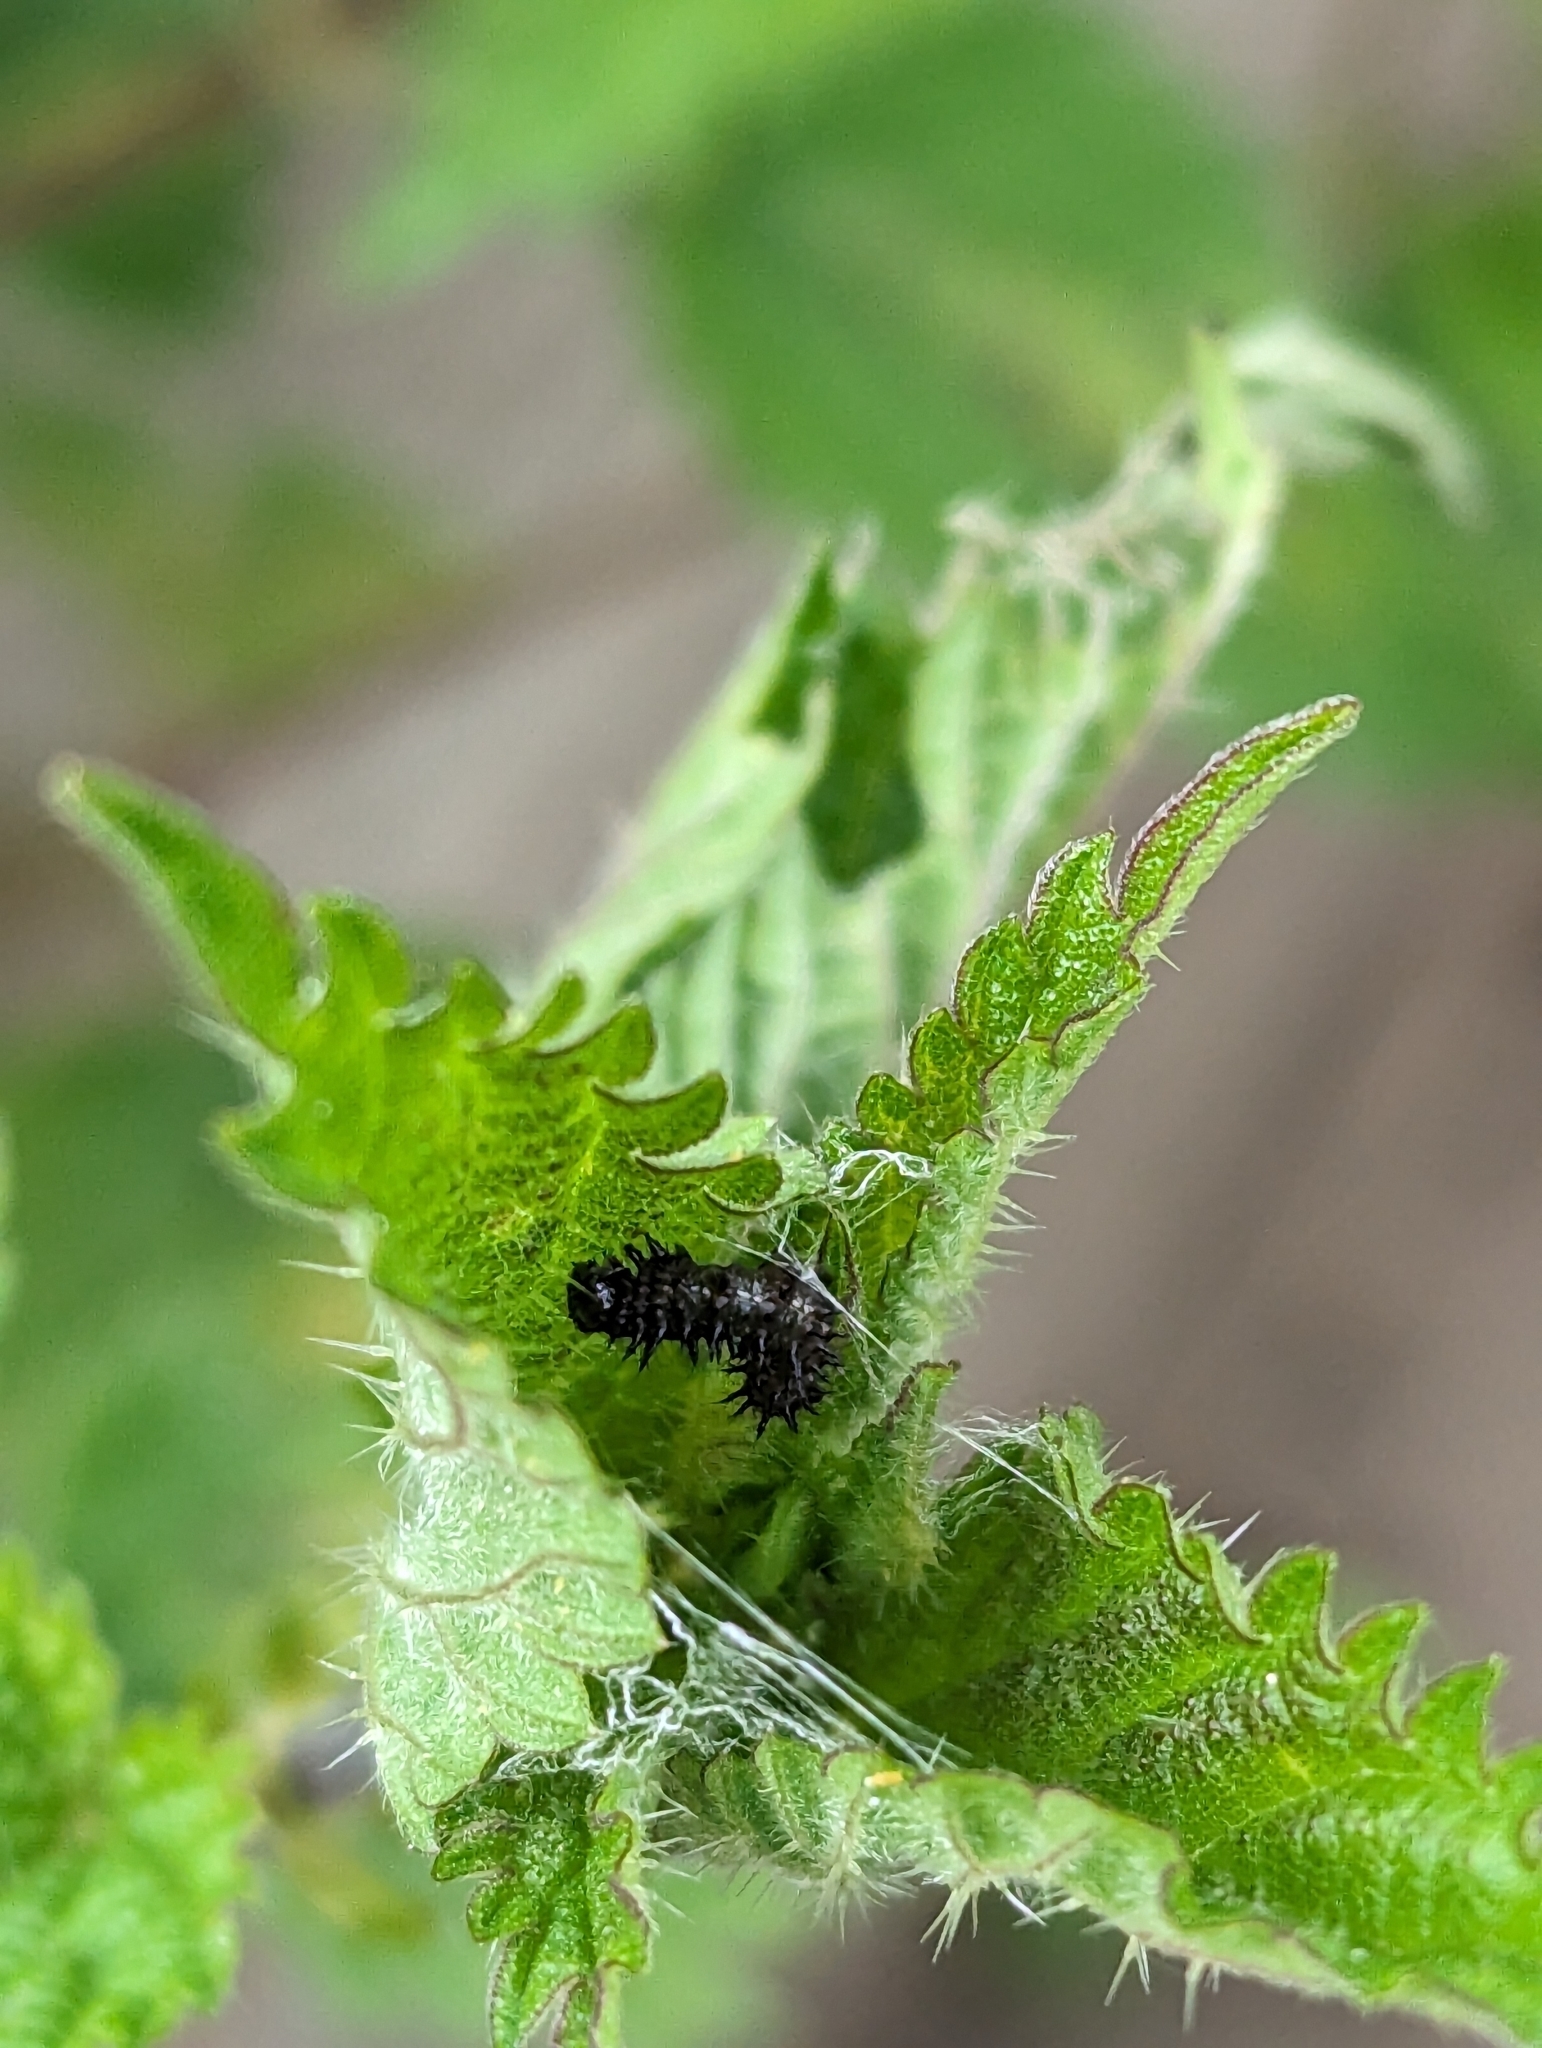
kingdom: Animalia
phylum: Arthropoda
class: Insecta
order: Lepidoptera
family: Nymphalidae
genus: Aglais
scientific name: Aglais urticae
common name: Small tortoiseshell
